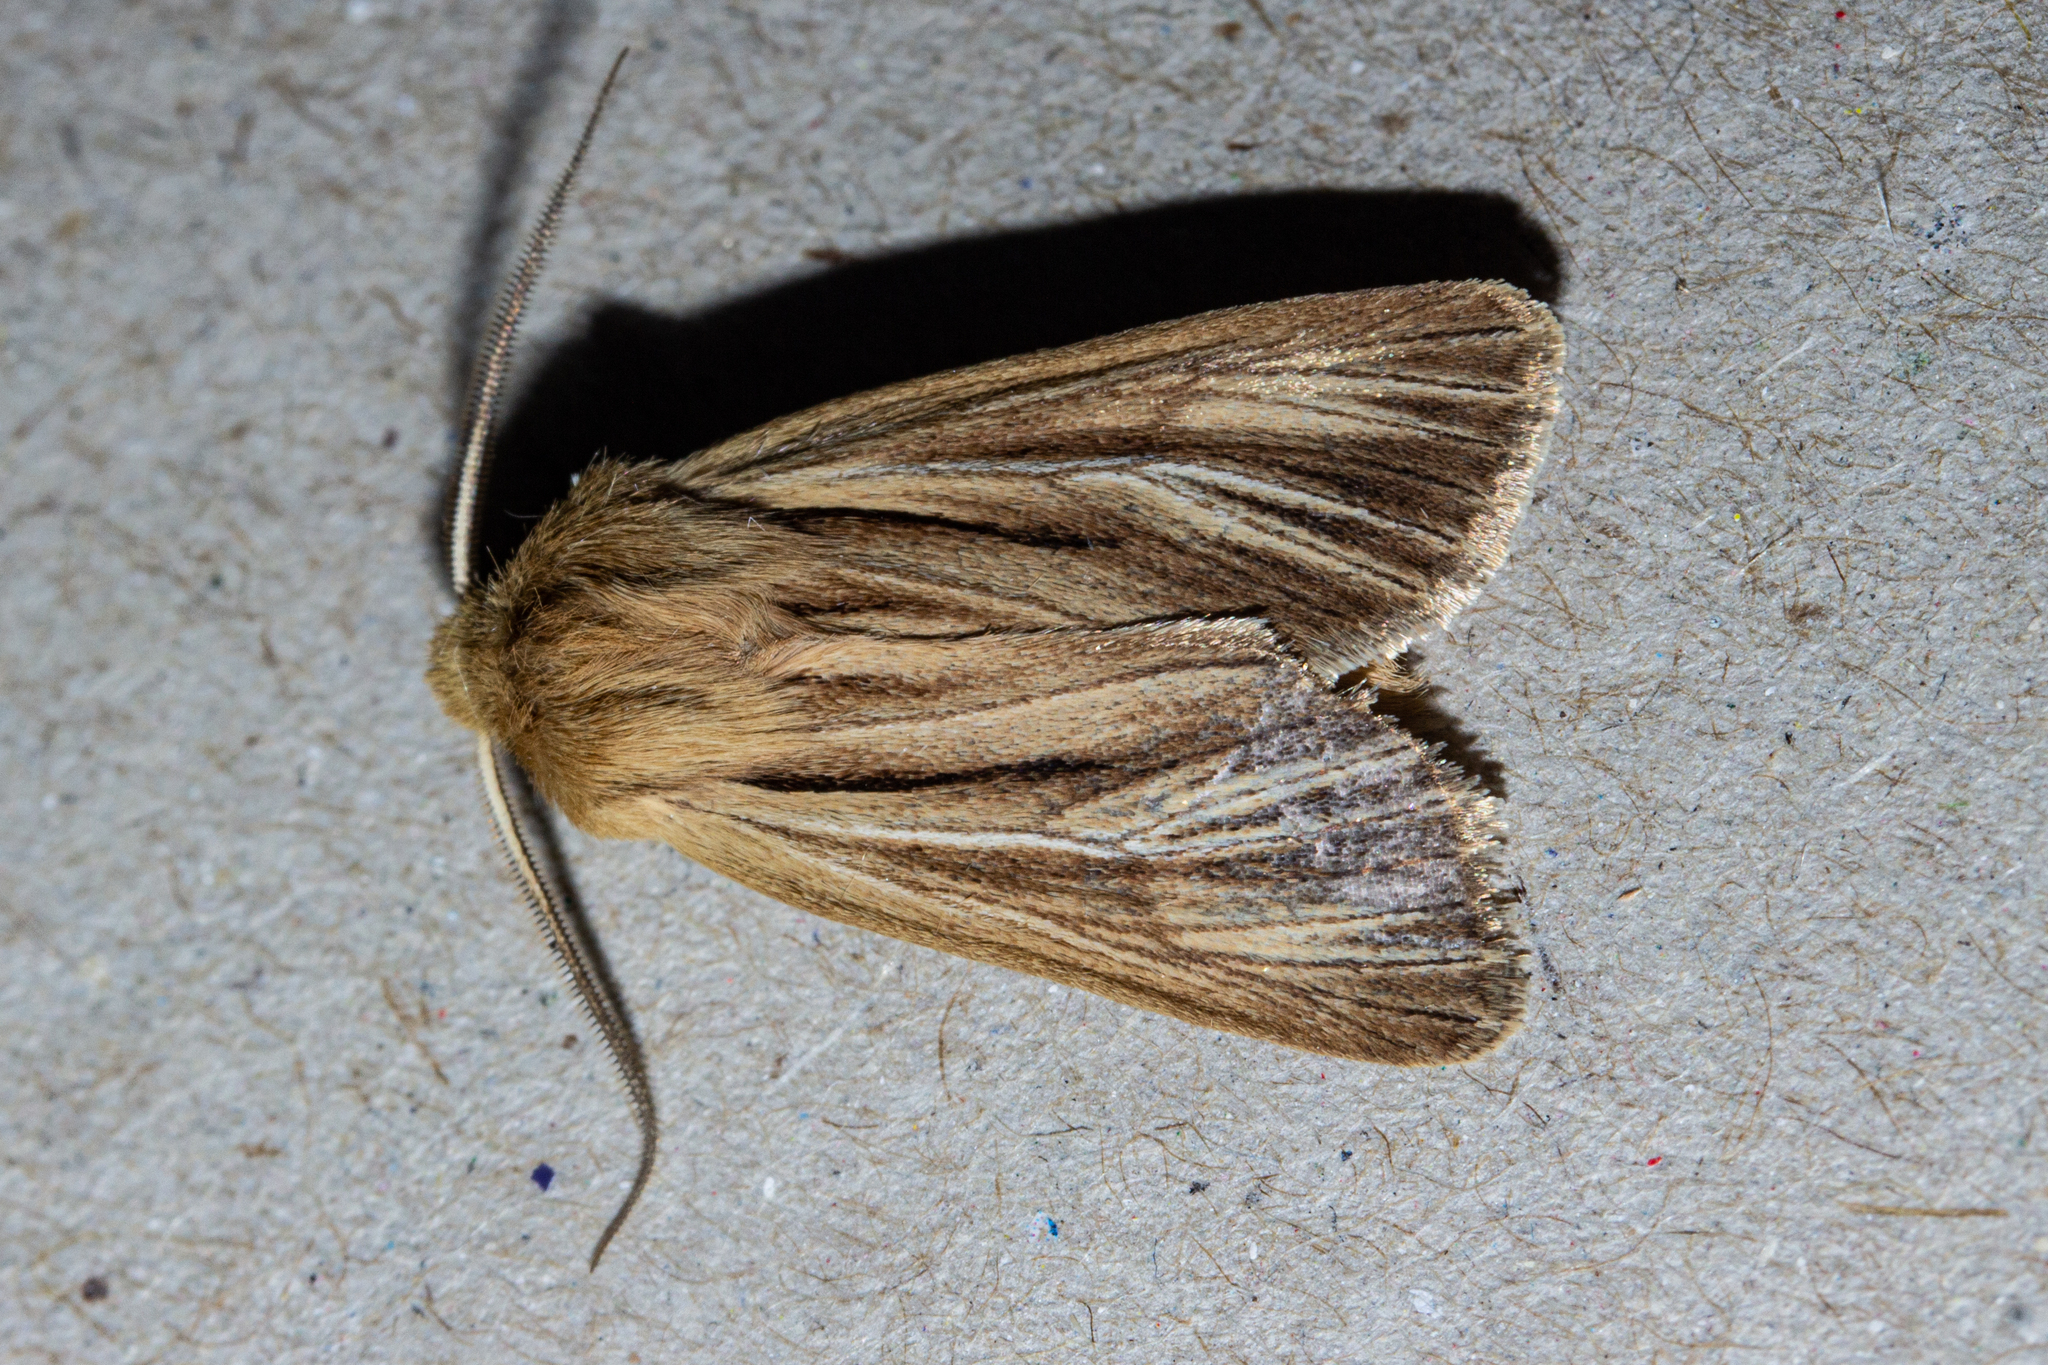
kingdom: Animalia
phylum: Arthropoda
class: Insecta
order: Lepidoptera
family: Noctuidae
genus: Ichneutica
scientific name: Ichneutica
